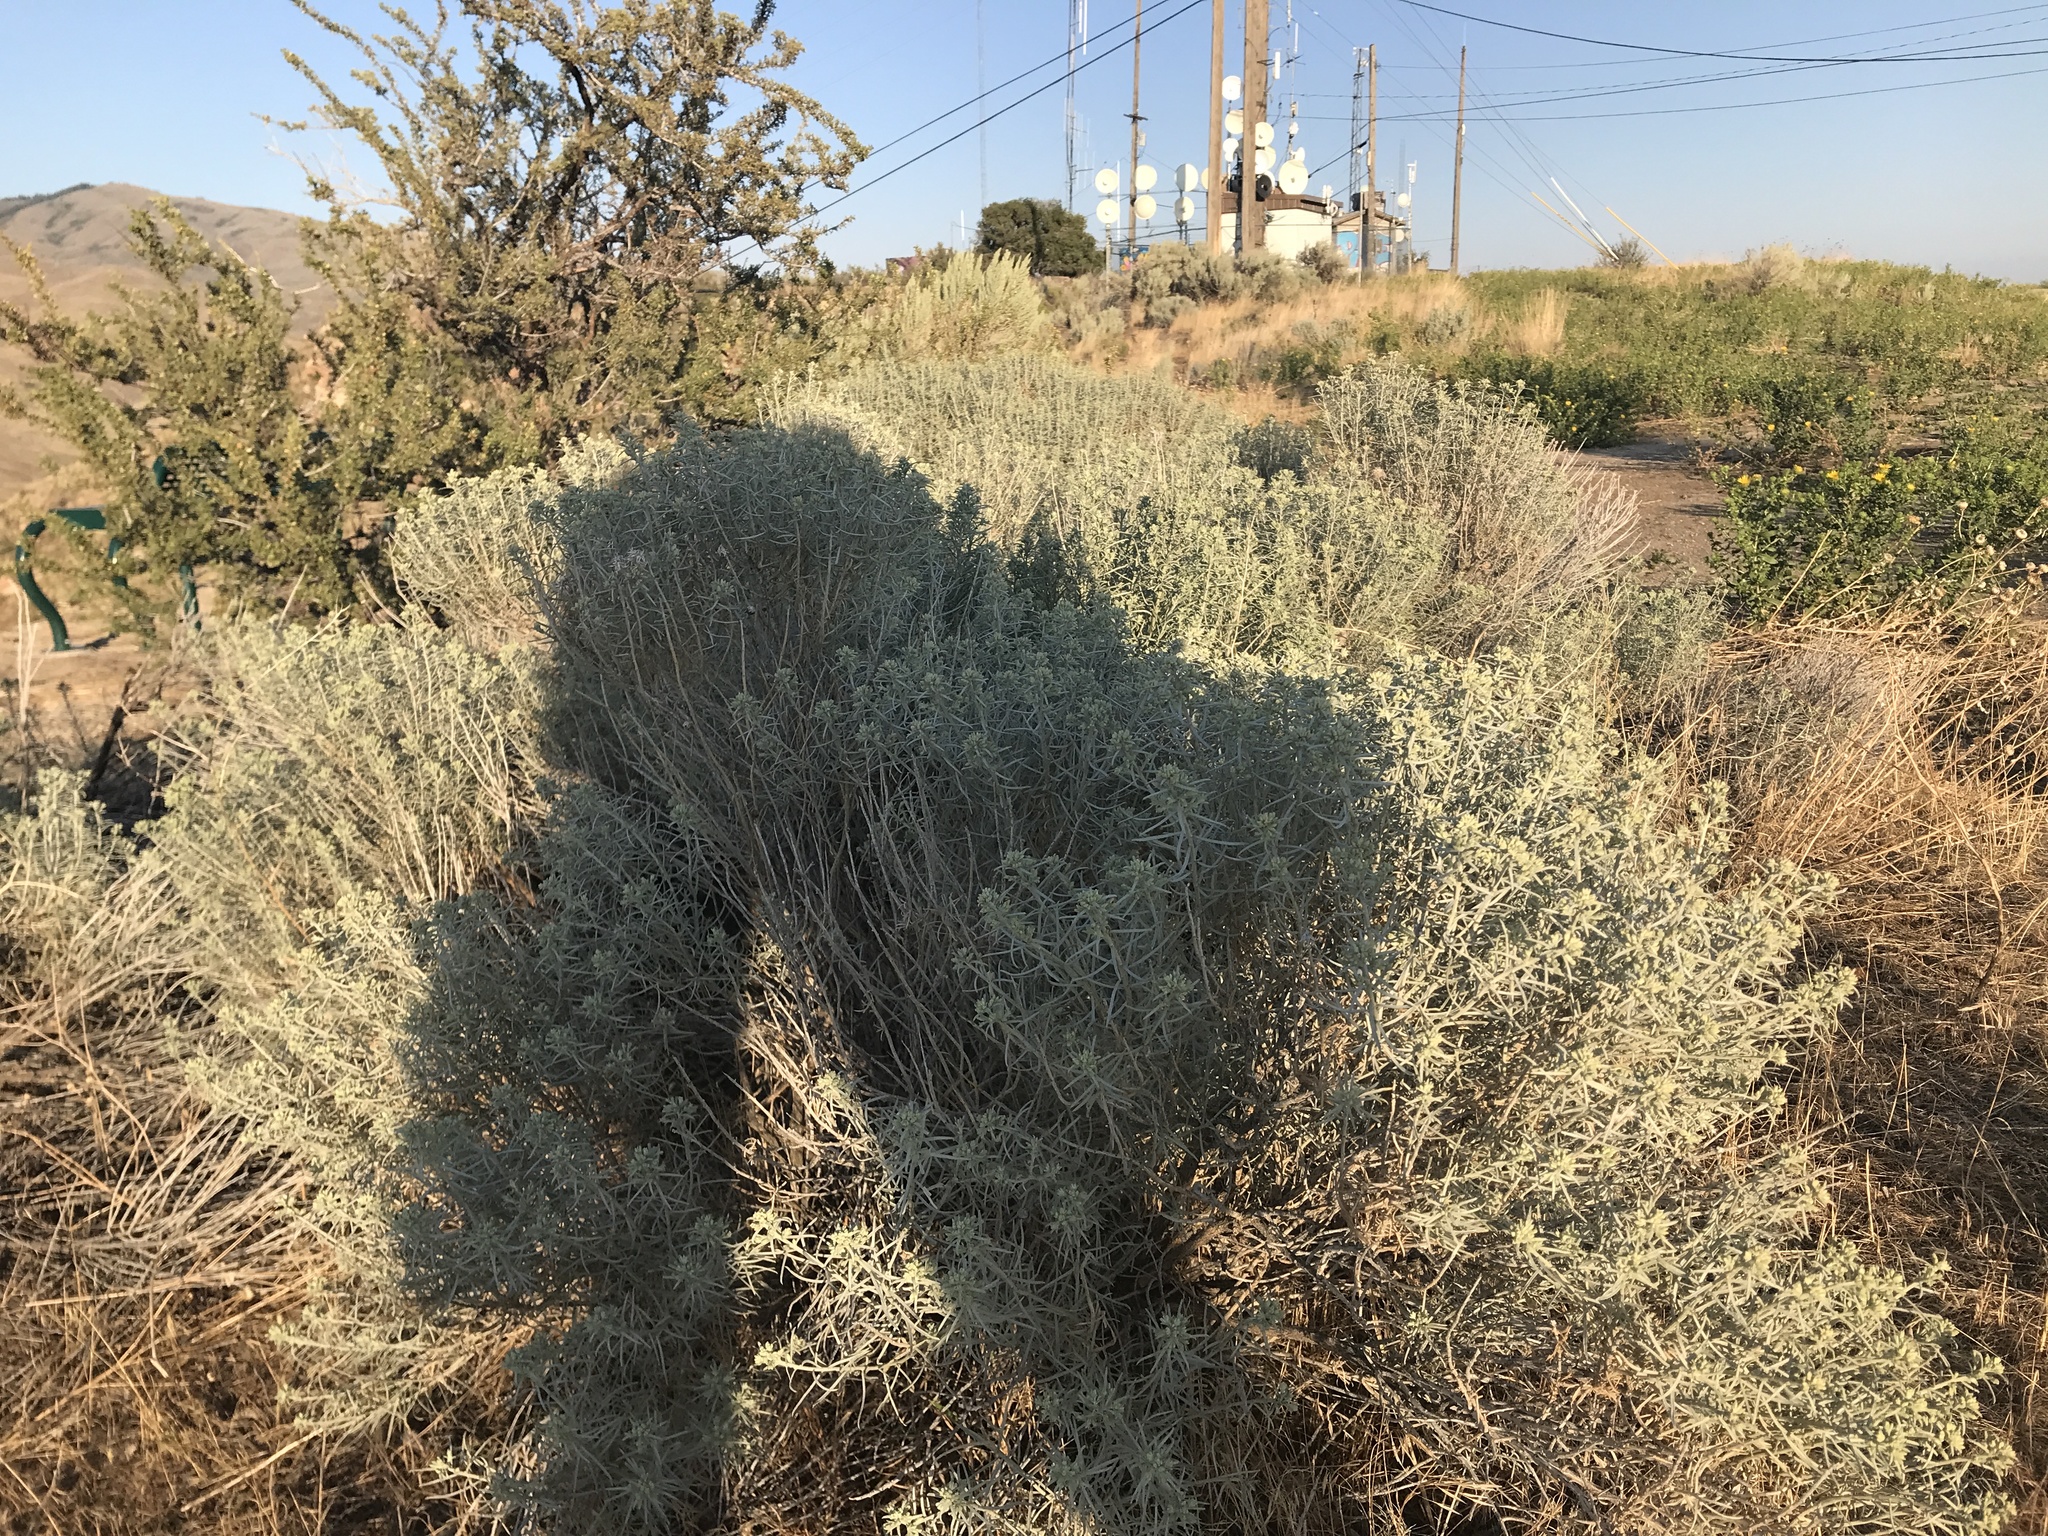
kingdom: Plantae
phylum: Tracheophyta
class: Magnoliopsida
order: Asterales
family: Asteraceae
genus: Ericameria
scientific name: Ericameria nauseosa
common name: Rubber rabbitbrush
